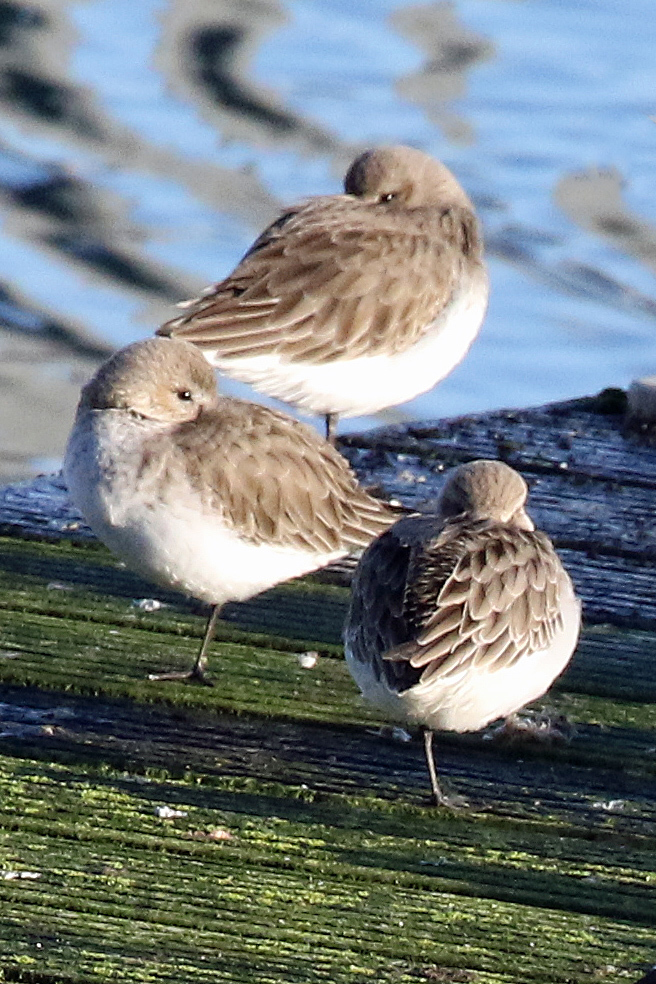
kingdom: Animalia
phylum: Chordata
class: Aves
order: Charadriiformes
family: Scolopacidae
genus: Calidris
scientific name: Calidris alpina
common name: Dunlin
